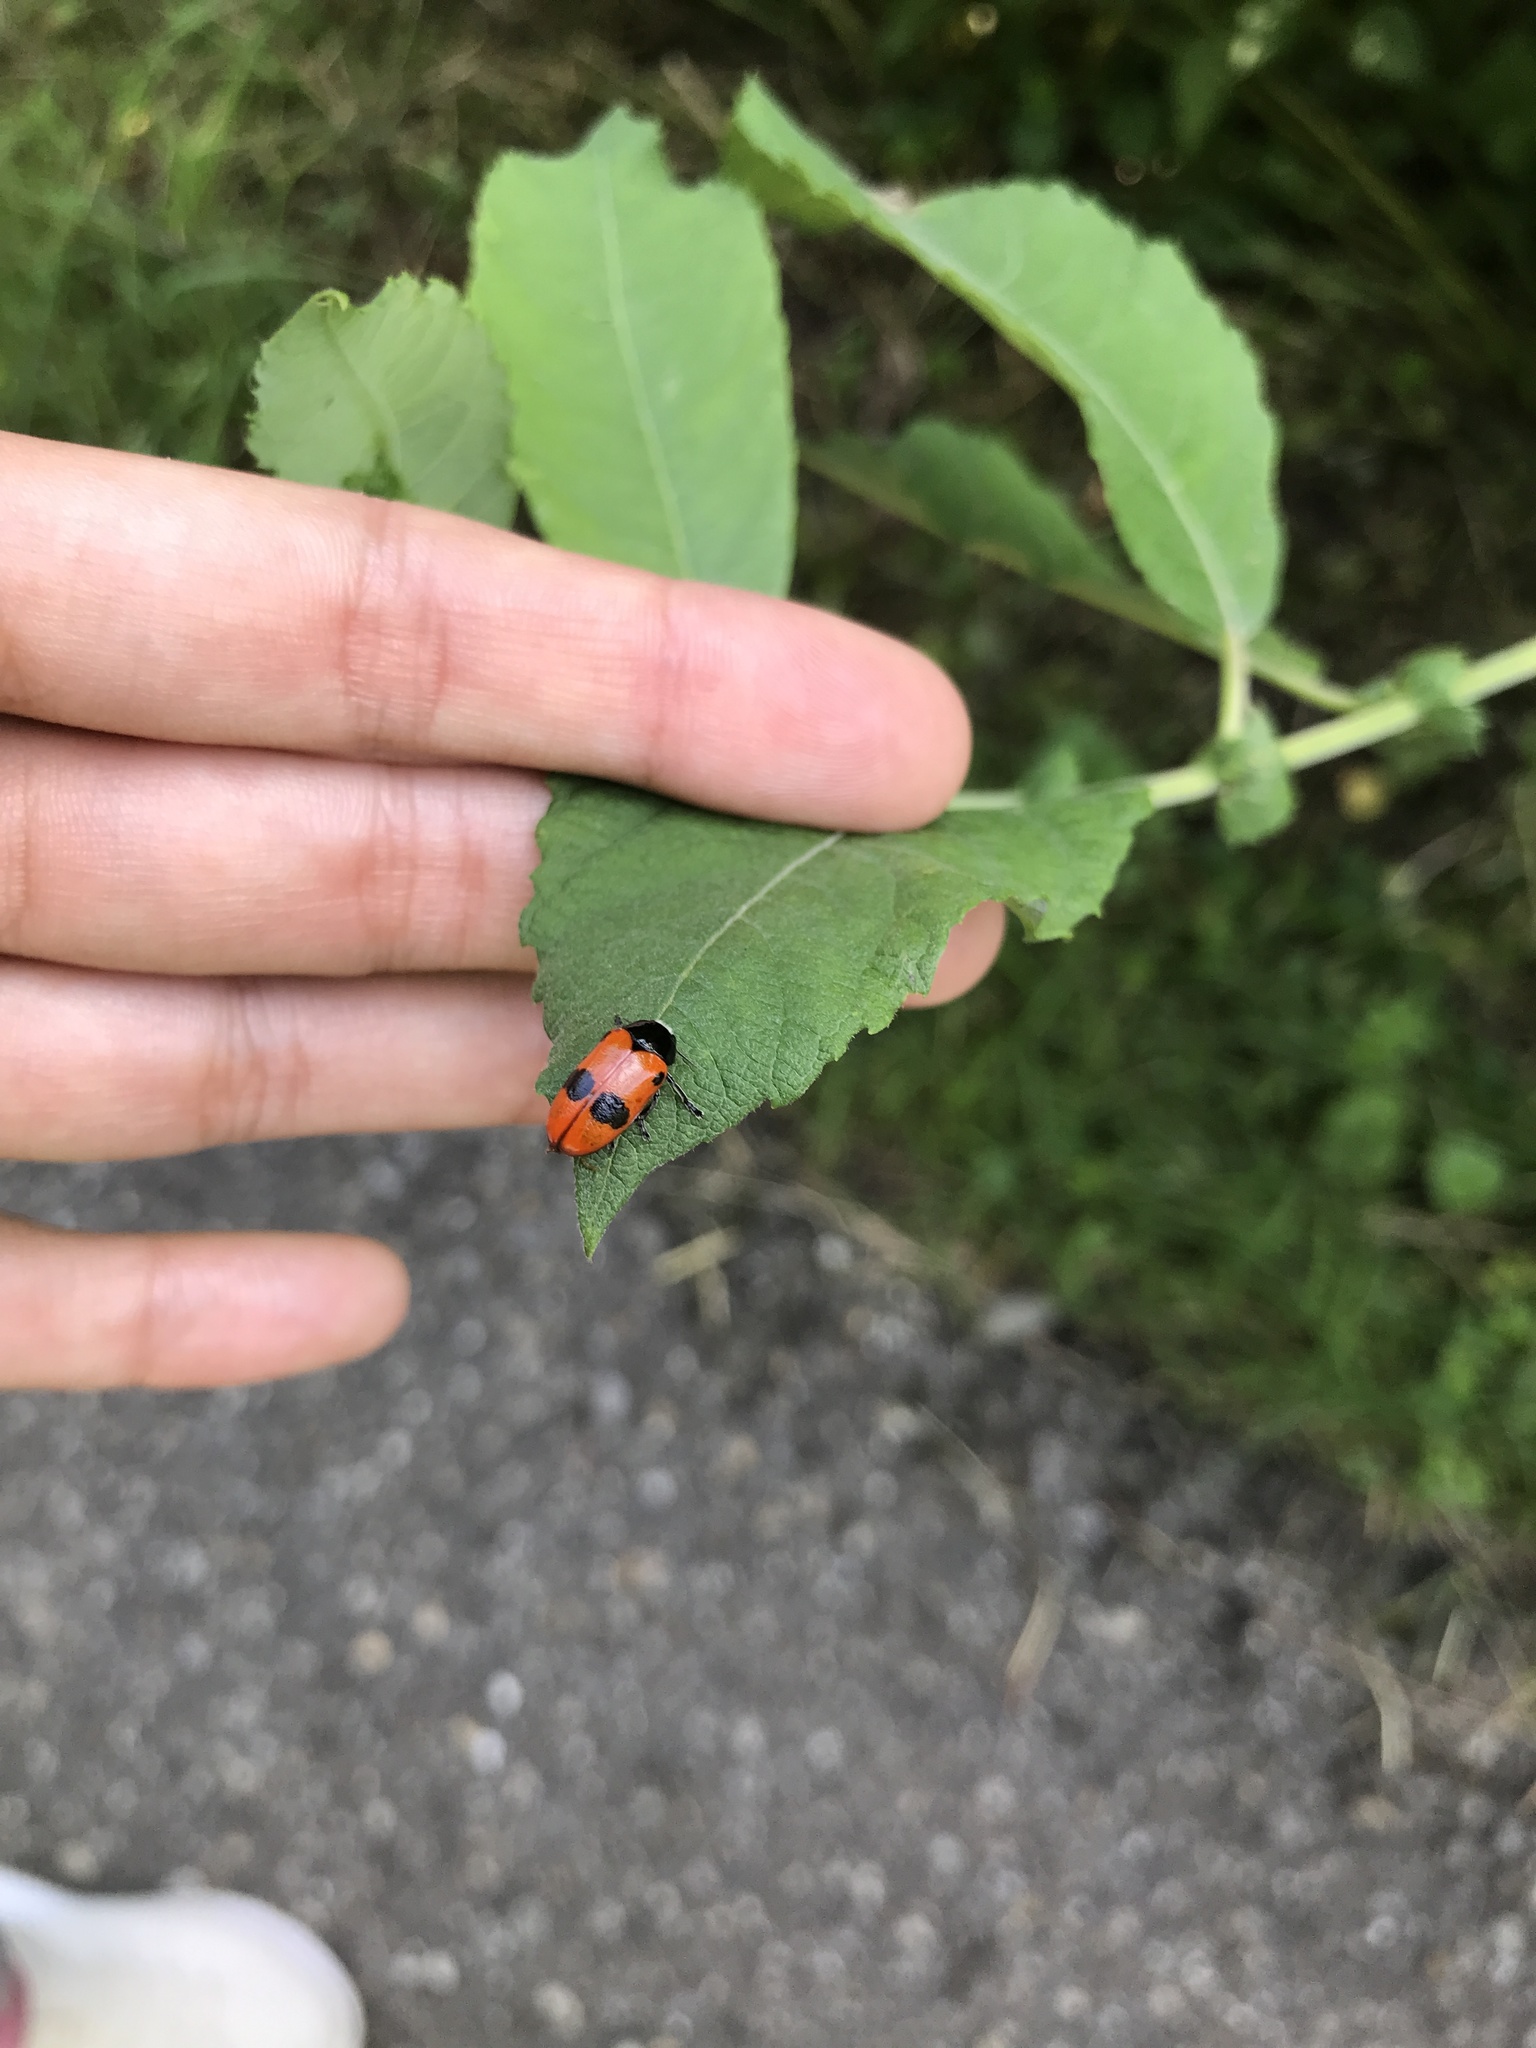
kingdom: Animalia
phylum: Arthropoda
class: Insecta
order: Coleoptera
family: Chrysomelidae
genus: Clytra
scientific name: Clytra laeviuscula
